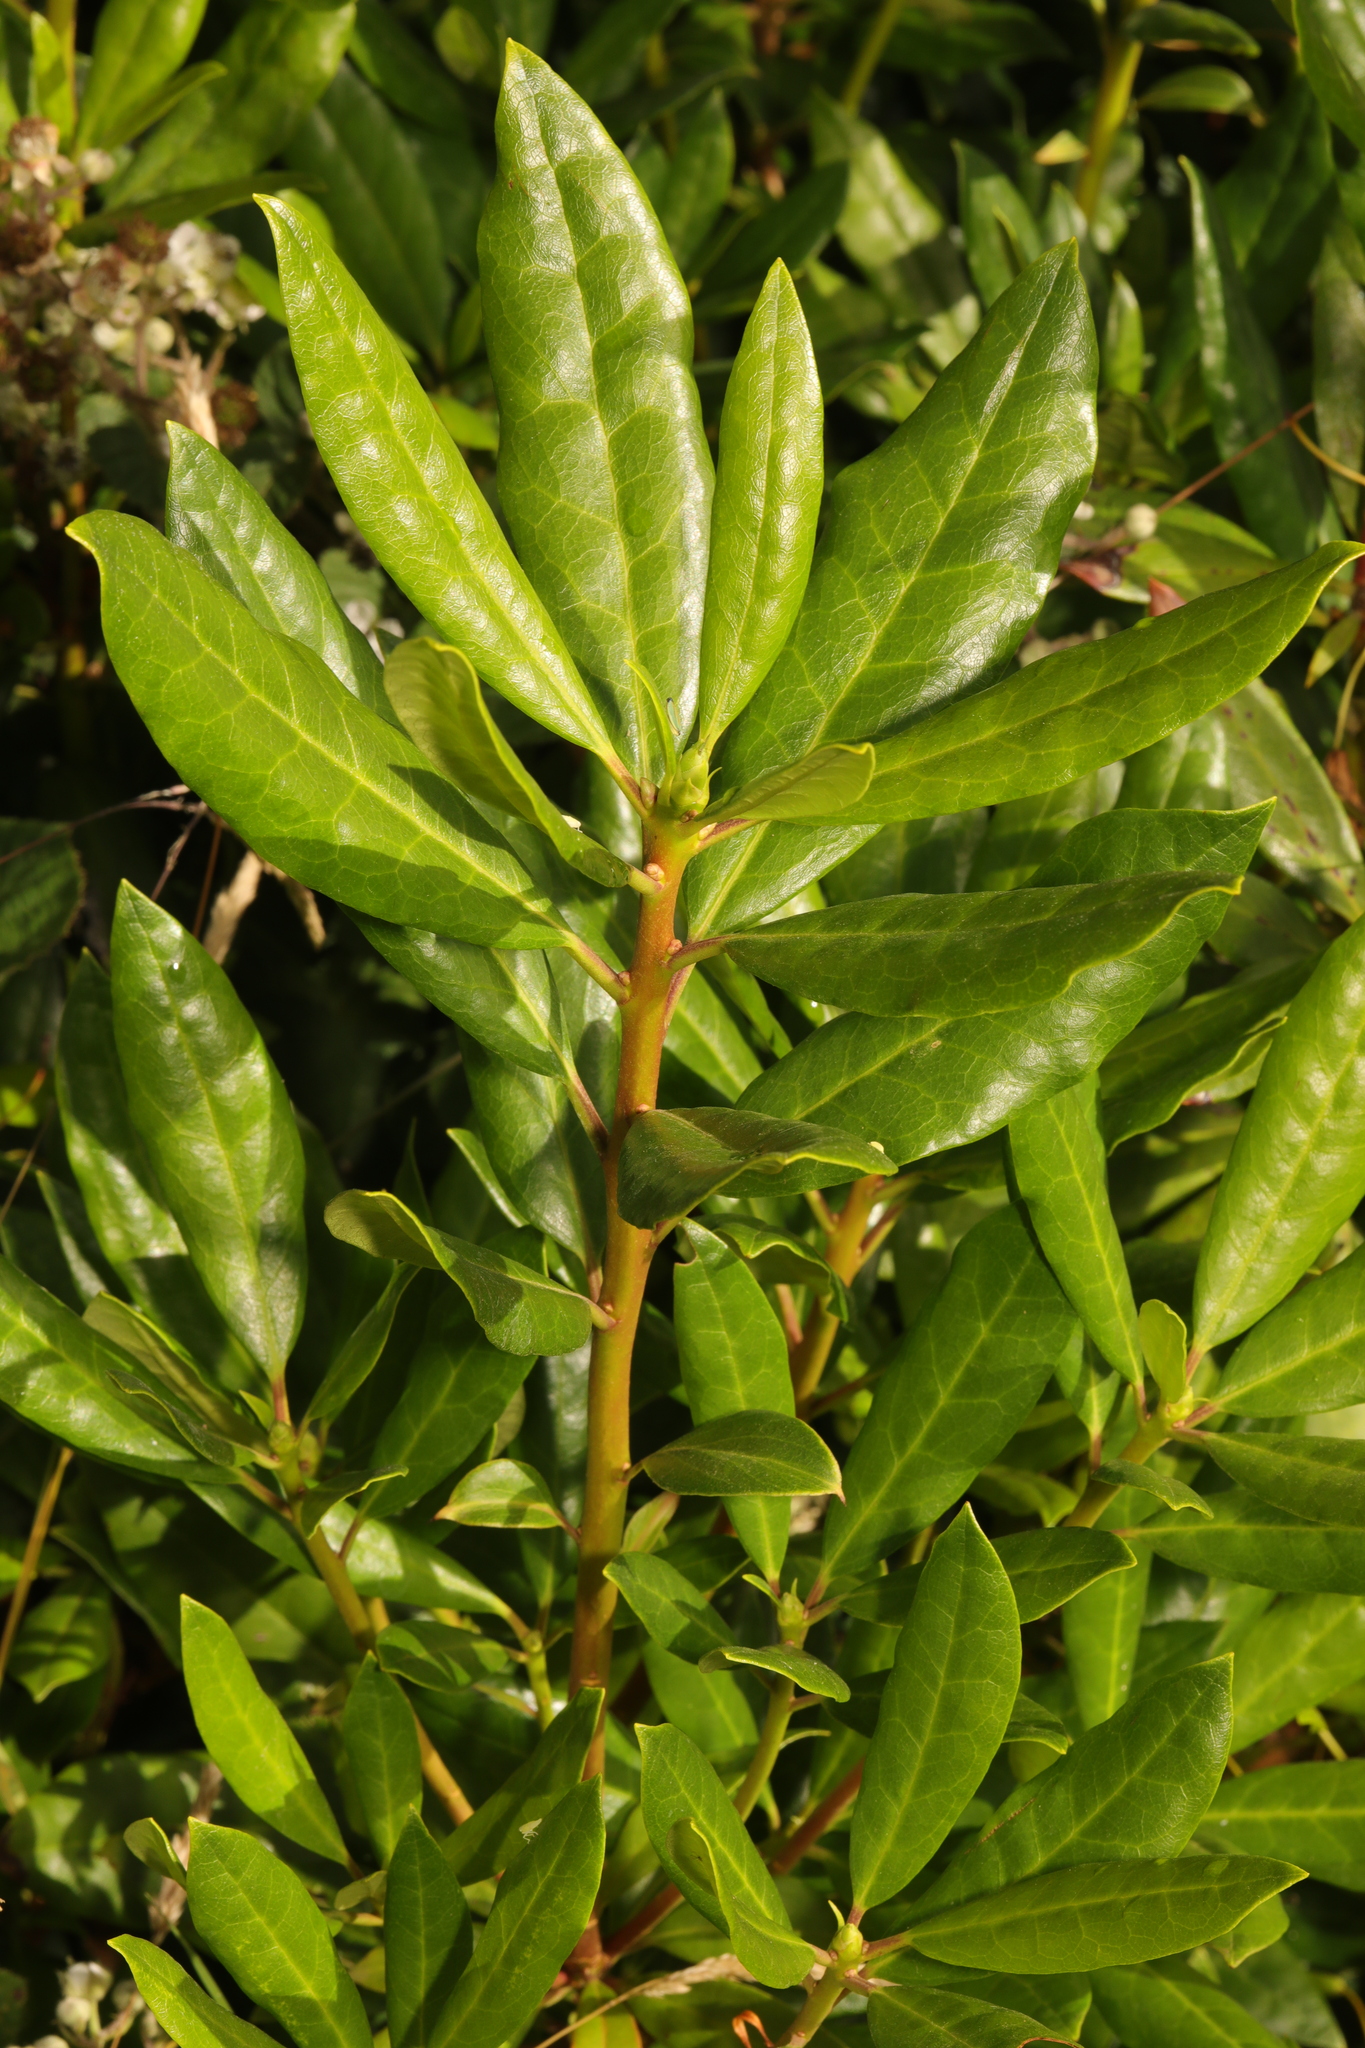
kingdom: Plantae
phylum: Tracheophyta
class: Magnoliopsida
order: Ericales
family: Ericaceae
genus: Rhododendron
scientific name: Rhododendron ponticum
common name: Rhododendron
